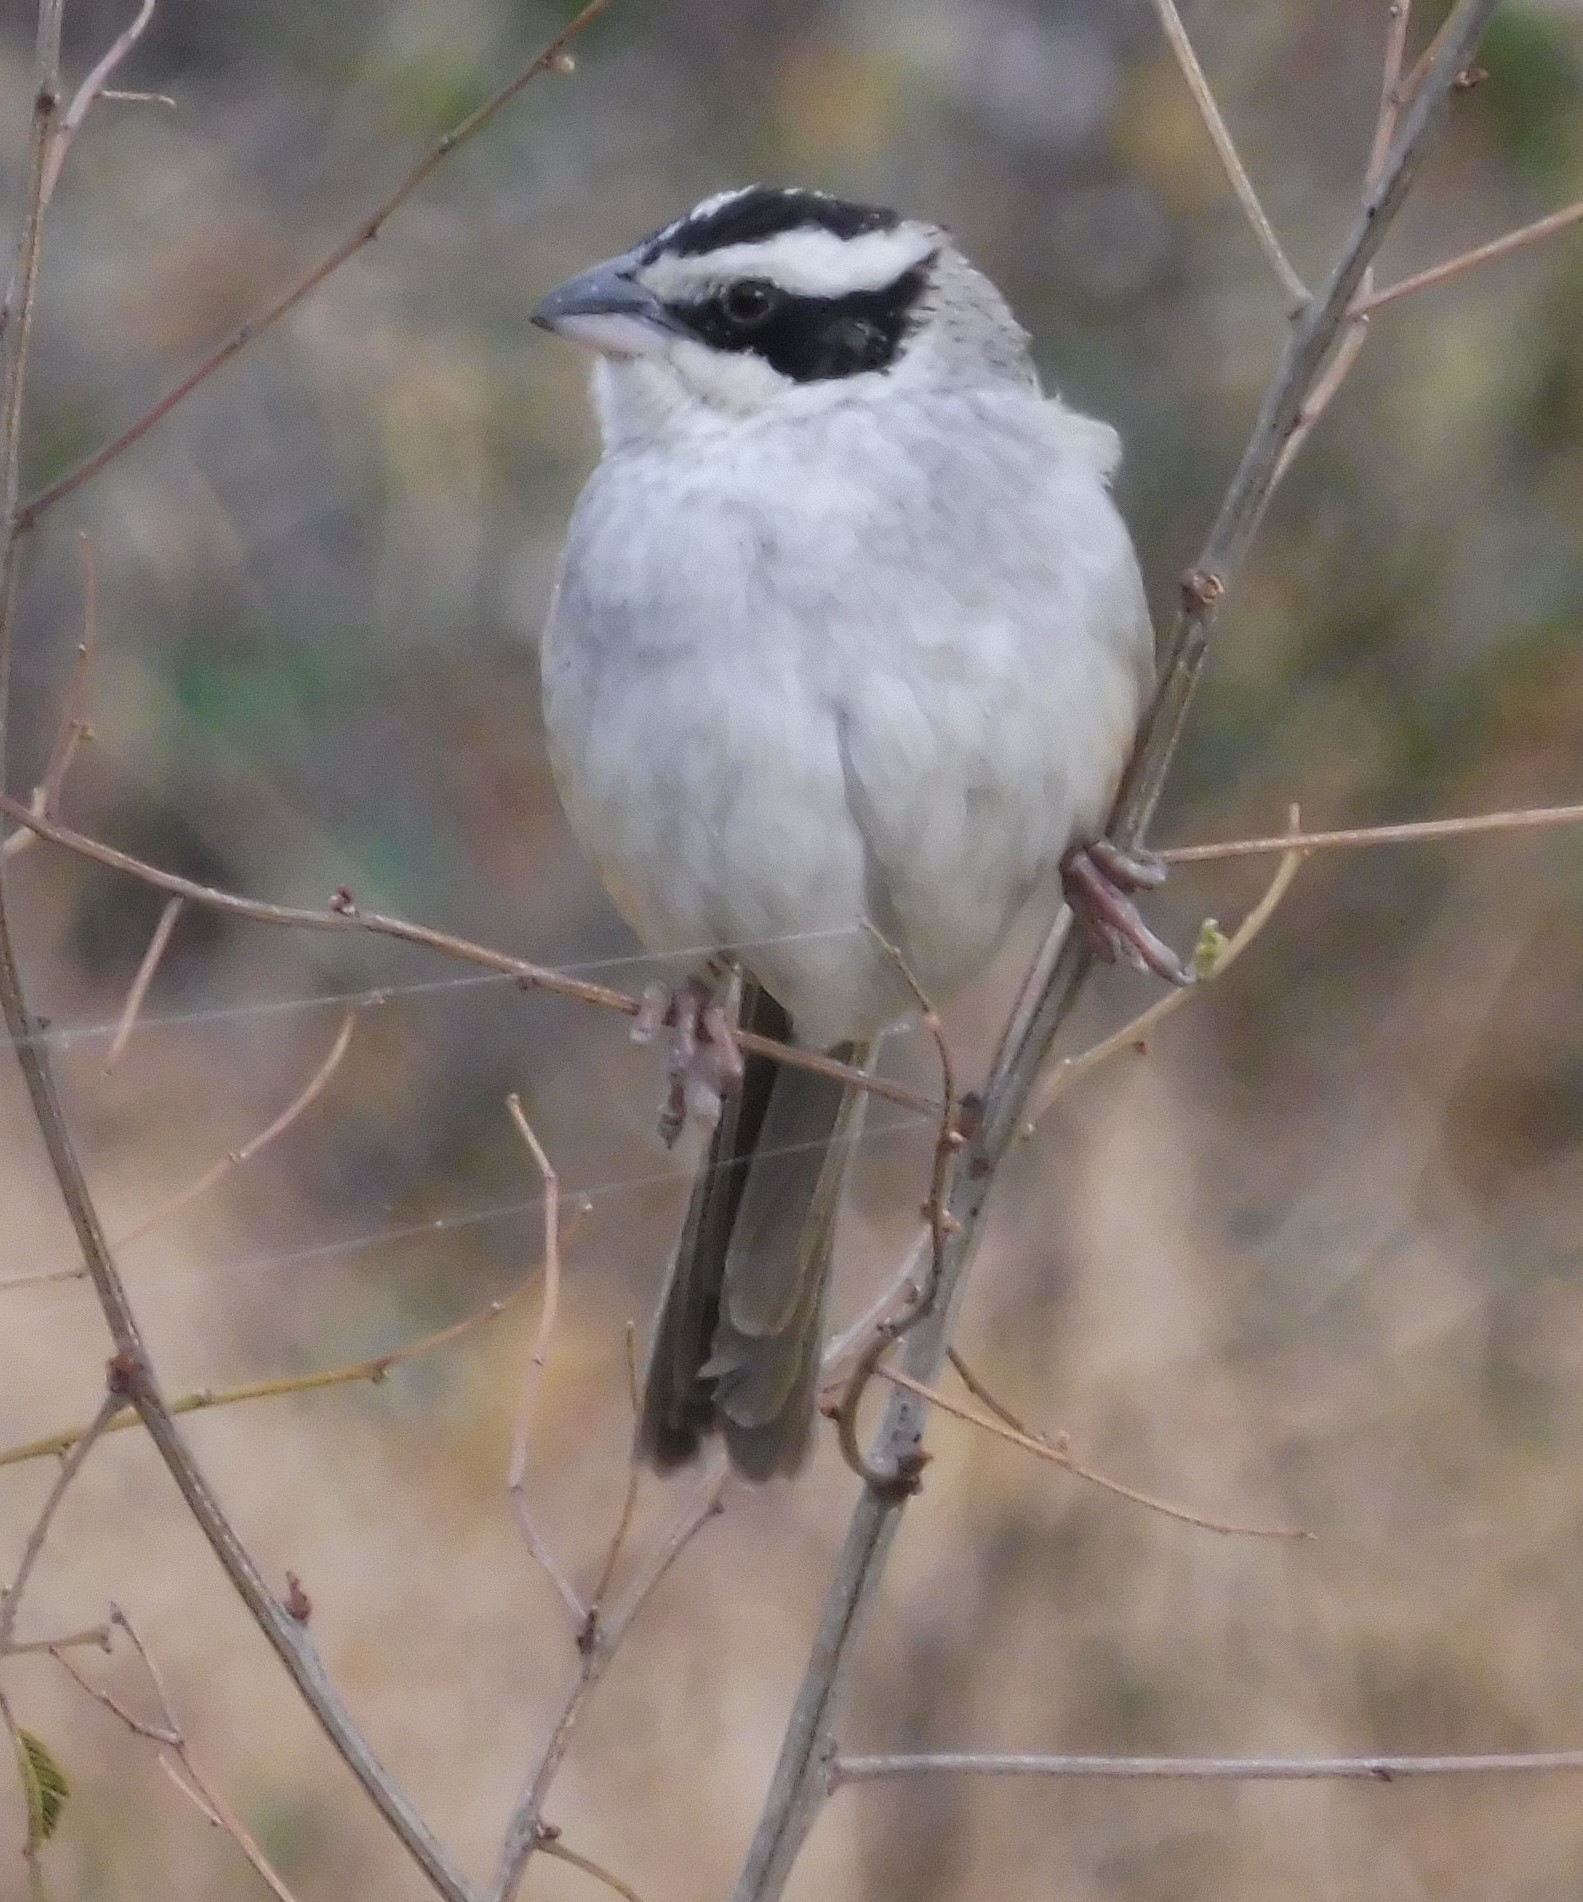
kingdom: Animalia
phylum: Chordata
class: Aves
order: Passeriformes
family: Passerellidae
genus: Peucaea
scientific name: Peucaea ruficauda
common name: Stripe-headed sparrow
